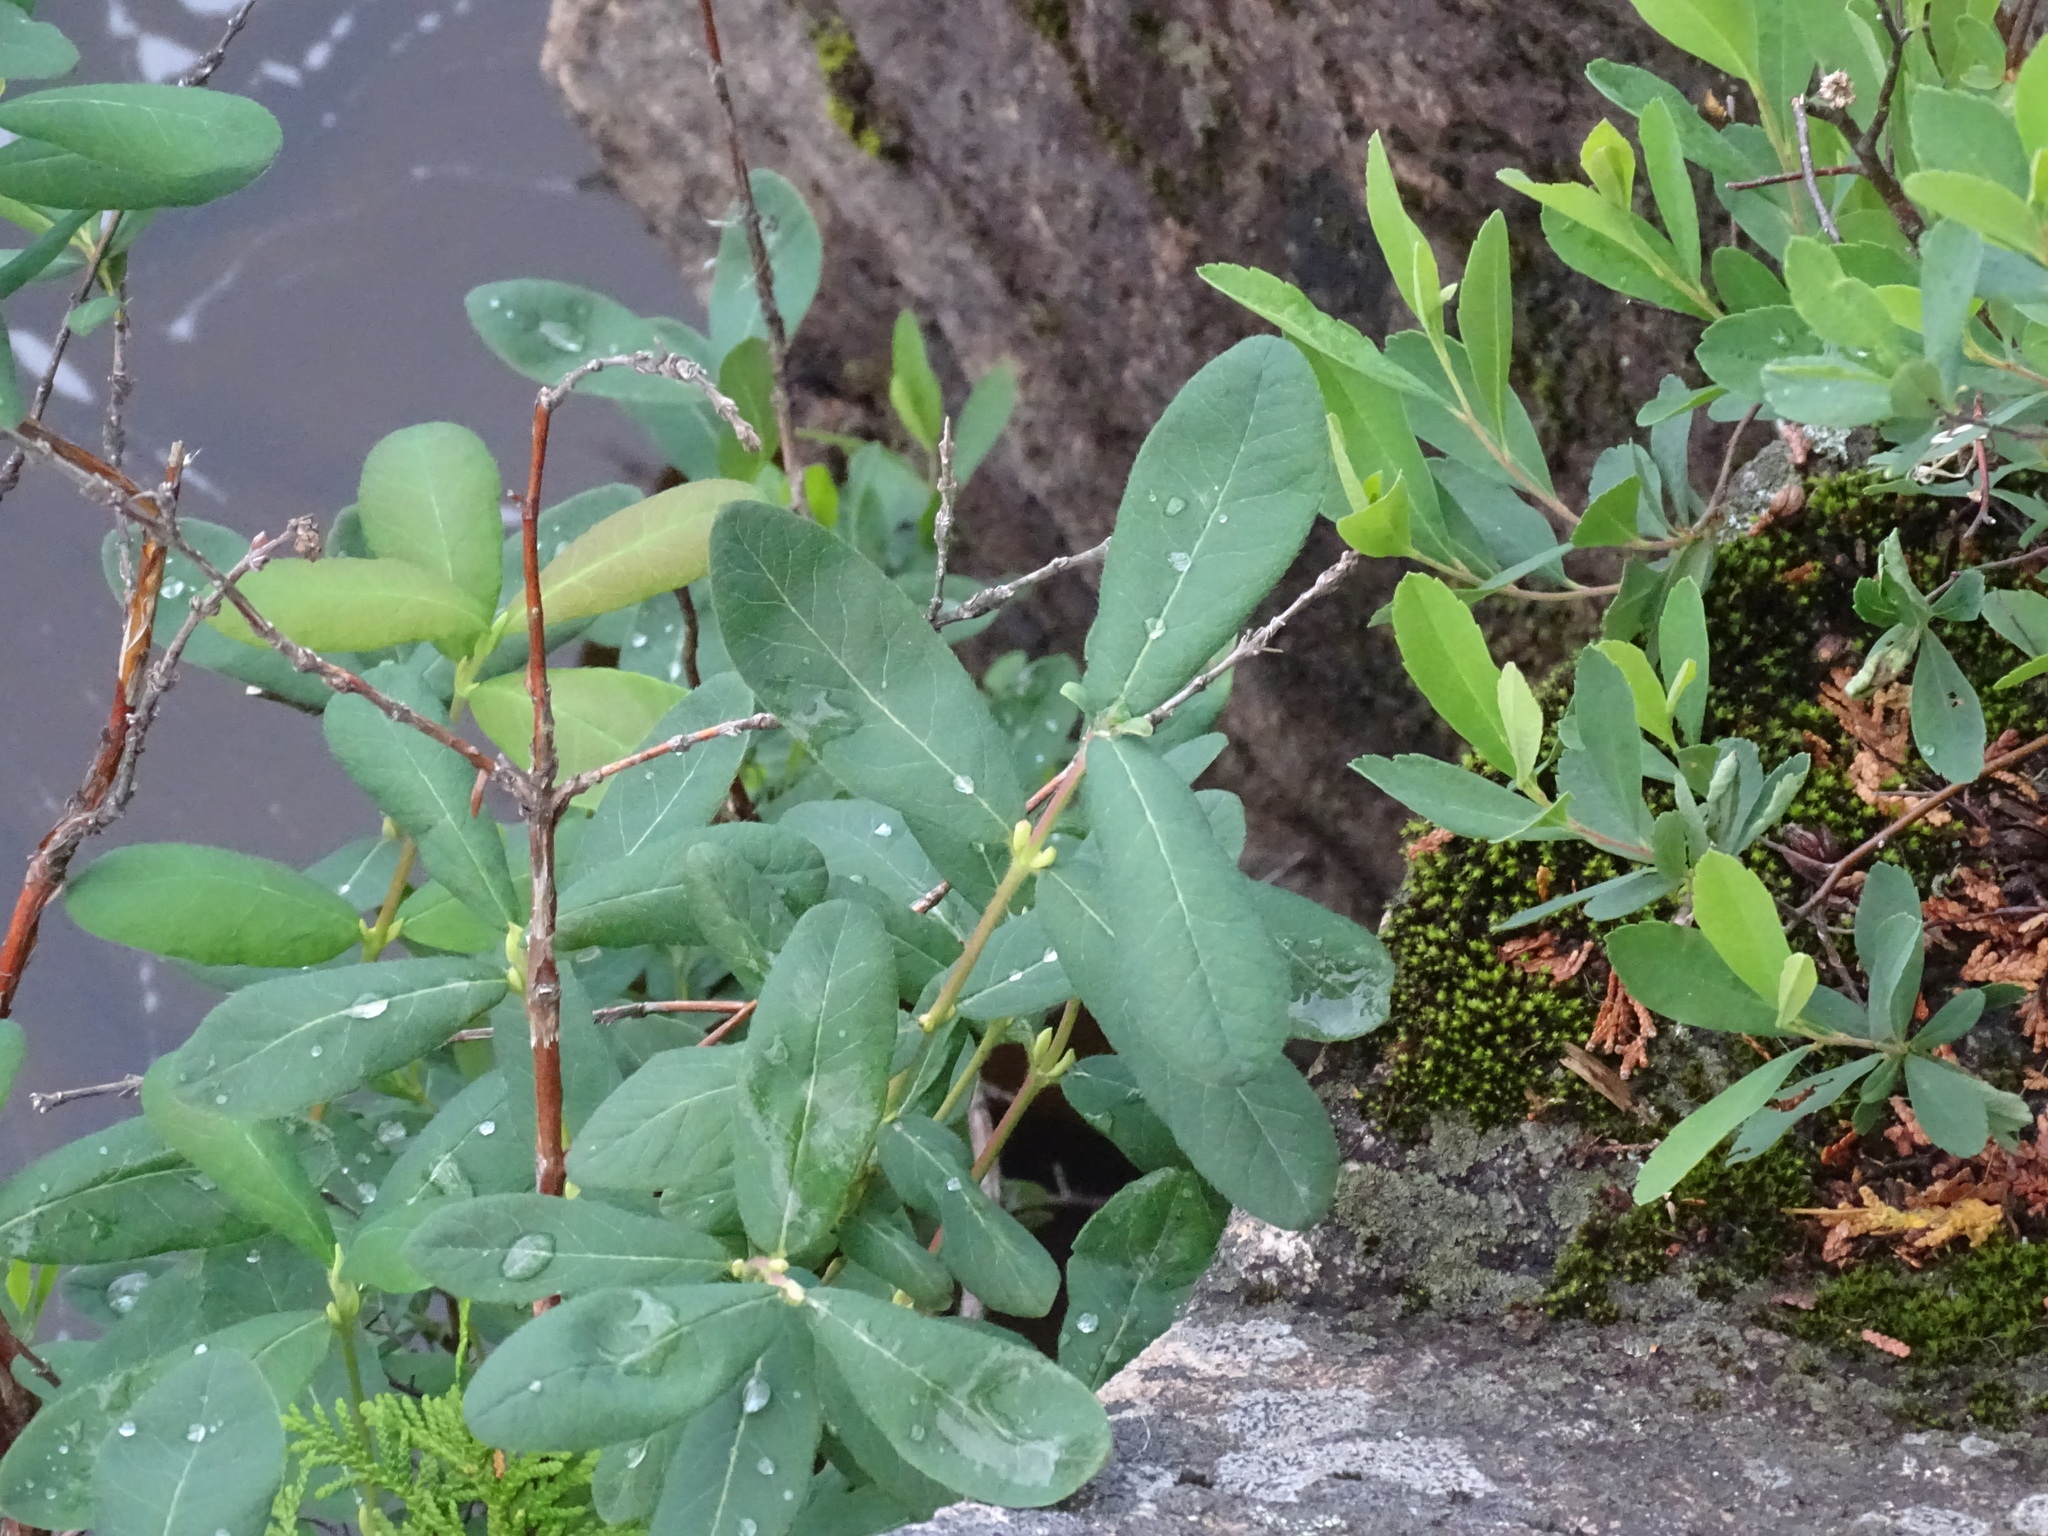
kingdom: Plantae
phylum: Tracheophyta
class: Magnoliopsida
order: Dipsacales
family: Caprifoliaceae
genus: Lonicera
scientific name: Lonicera oblongifolia
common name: Swamp fly honeysuckle
